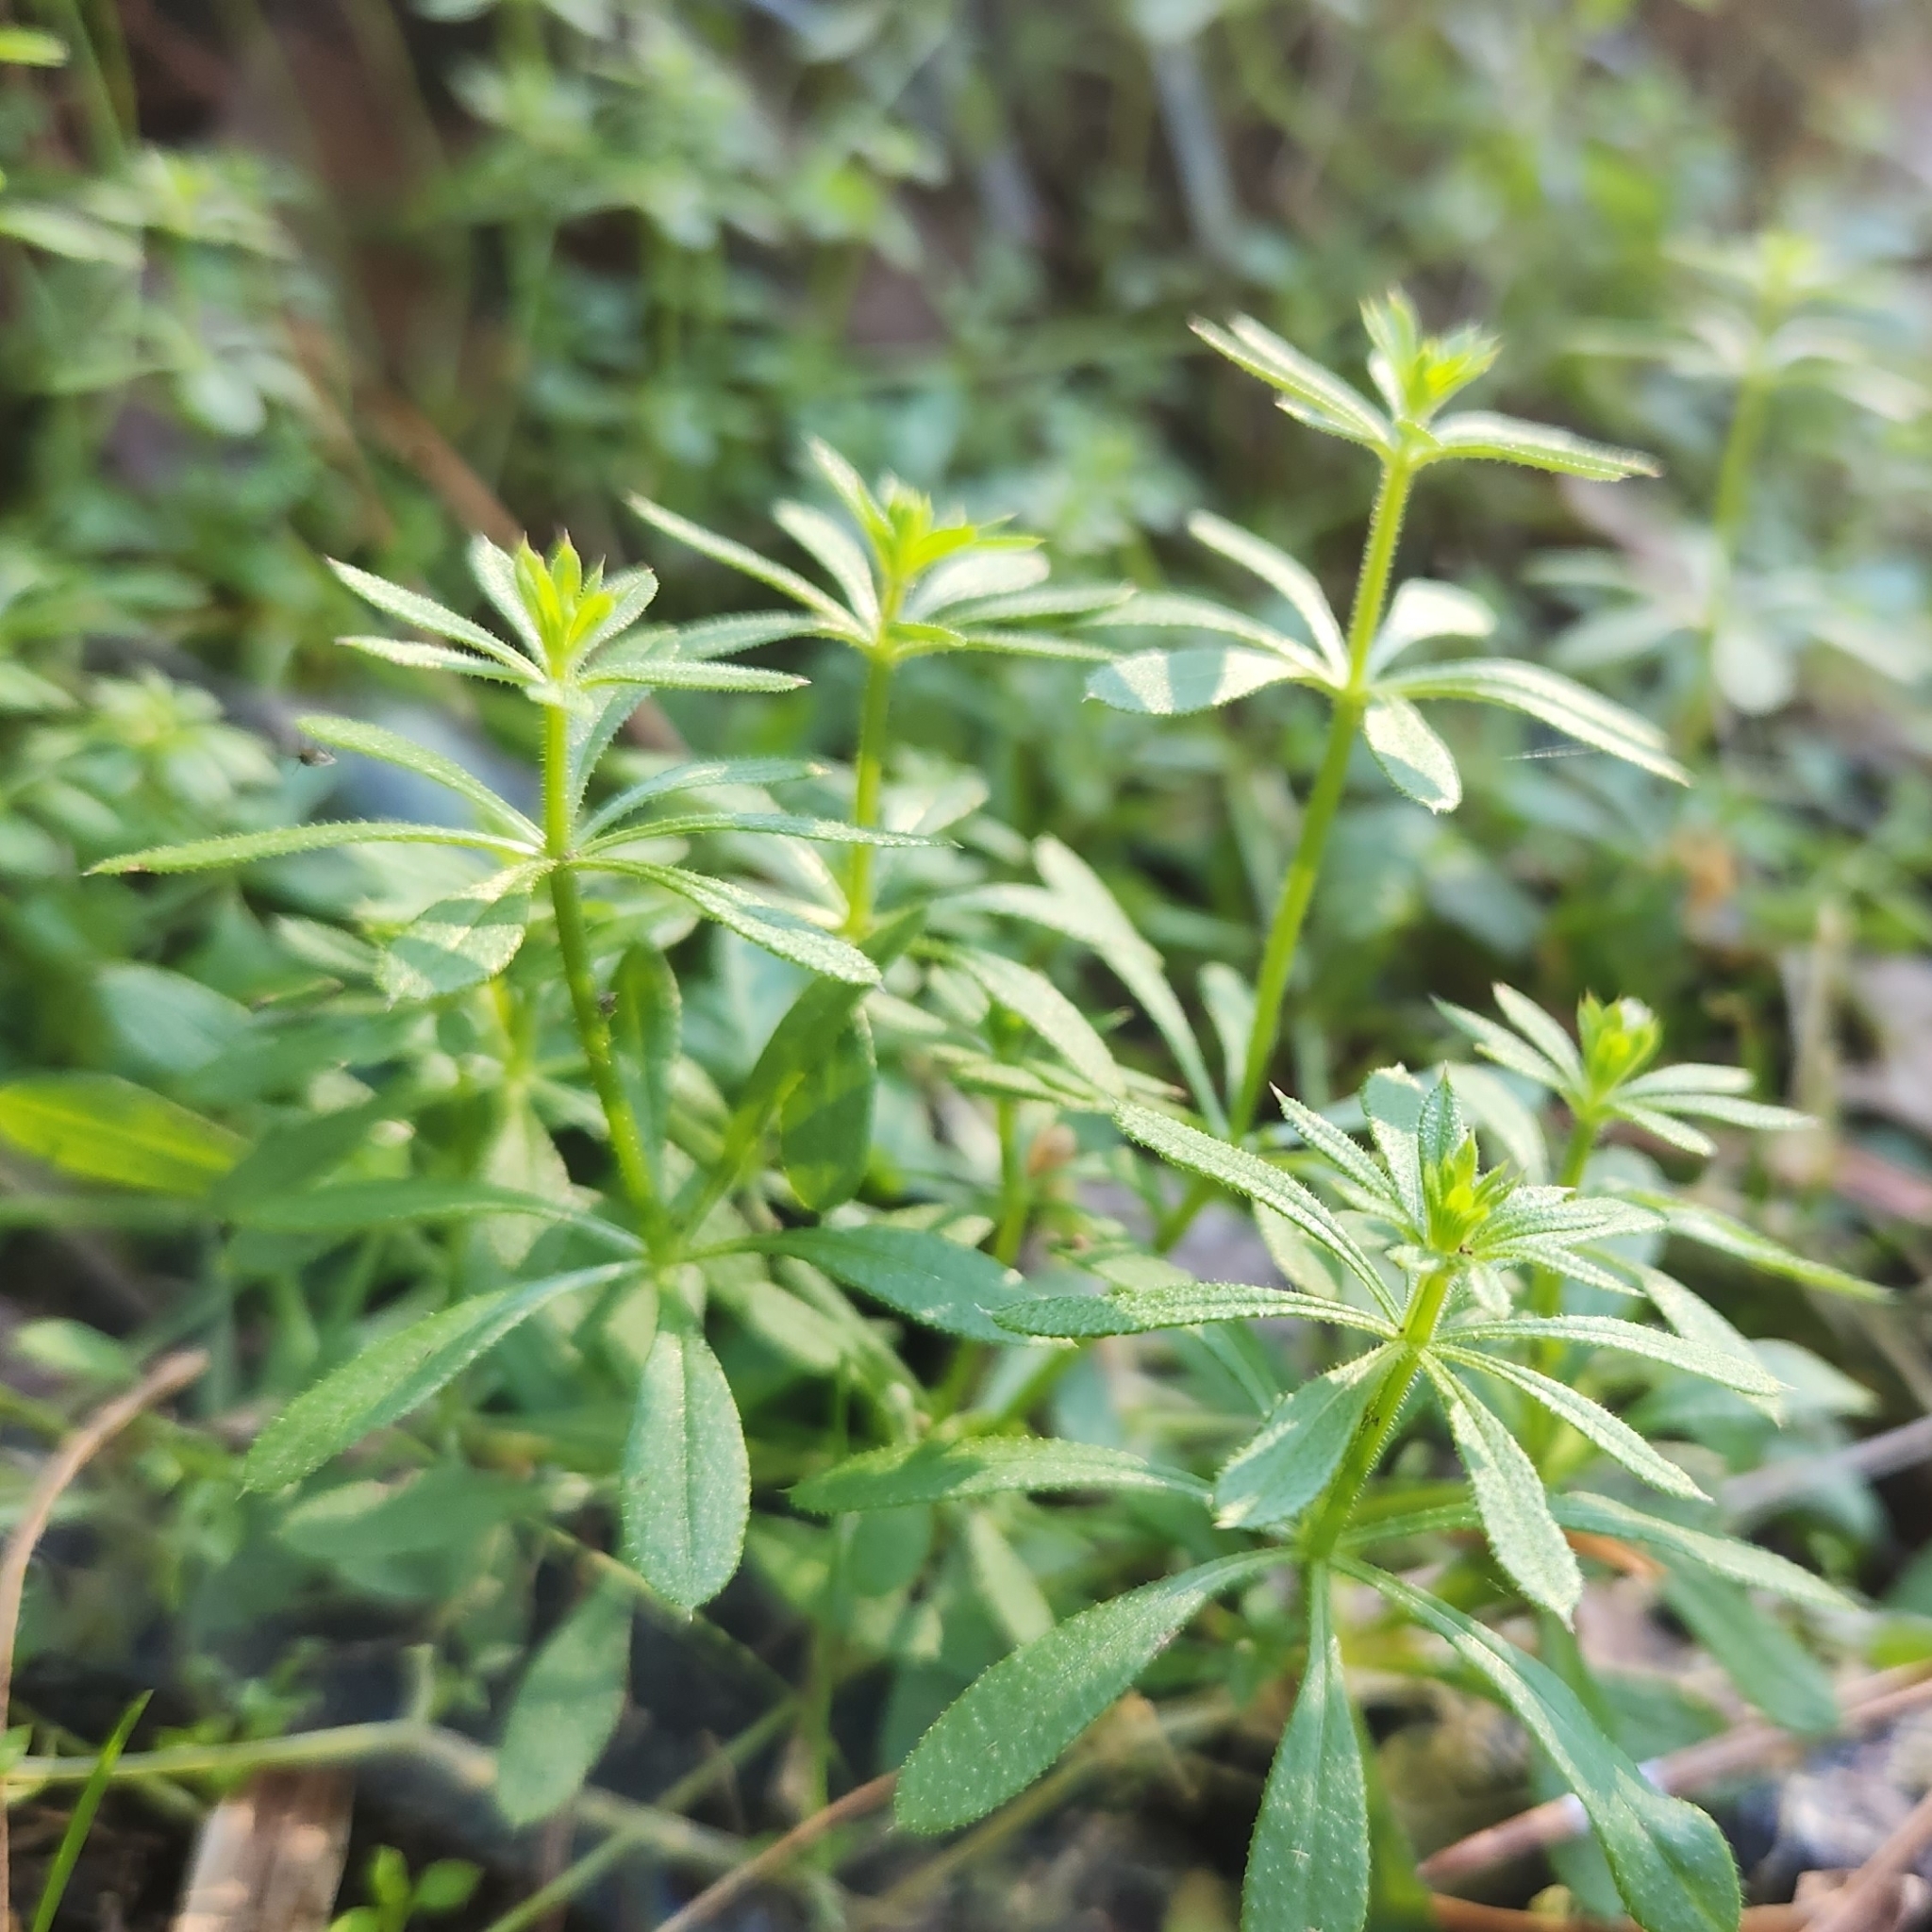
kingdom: Plantae
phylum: Tracheophyta
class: Magnoliopsida
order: Gentianales
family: Rubiaceae
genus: Galium
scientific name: Galium aparine
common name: Cleavers
